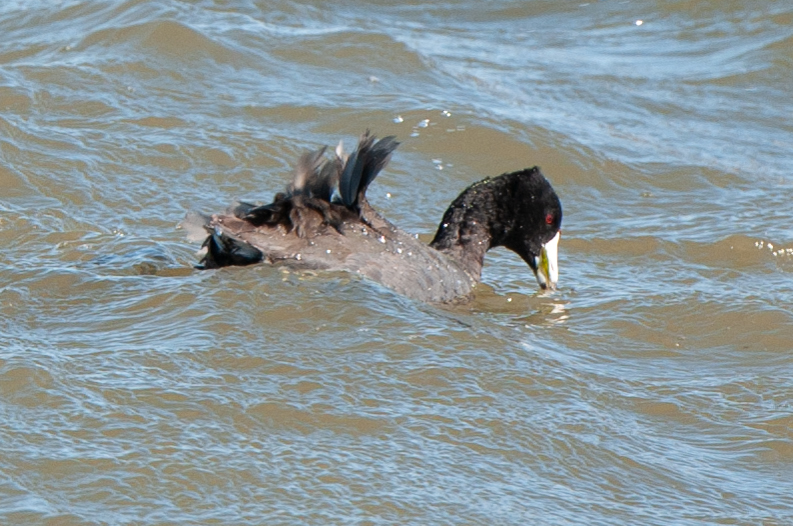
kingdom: Animalia
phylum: Chordata
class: Aves
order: Gruiformes
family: Rallidae
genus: Fulica
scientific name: Fulica americana
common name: American coot
